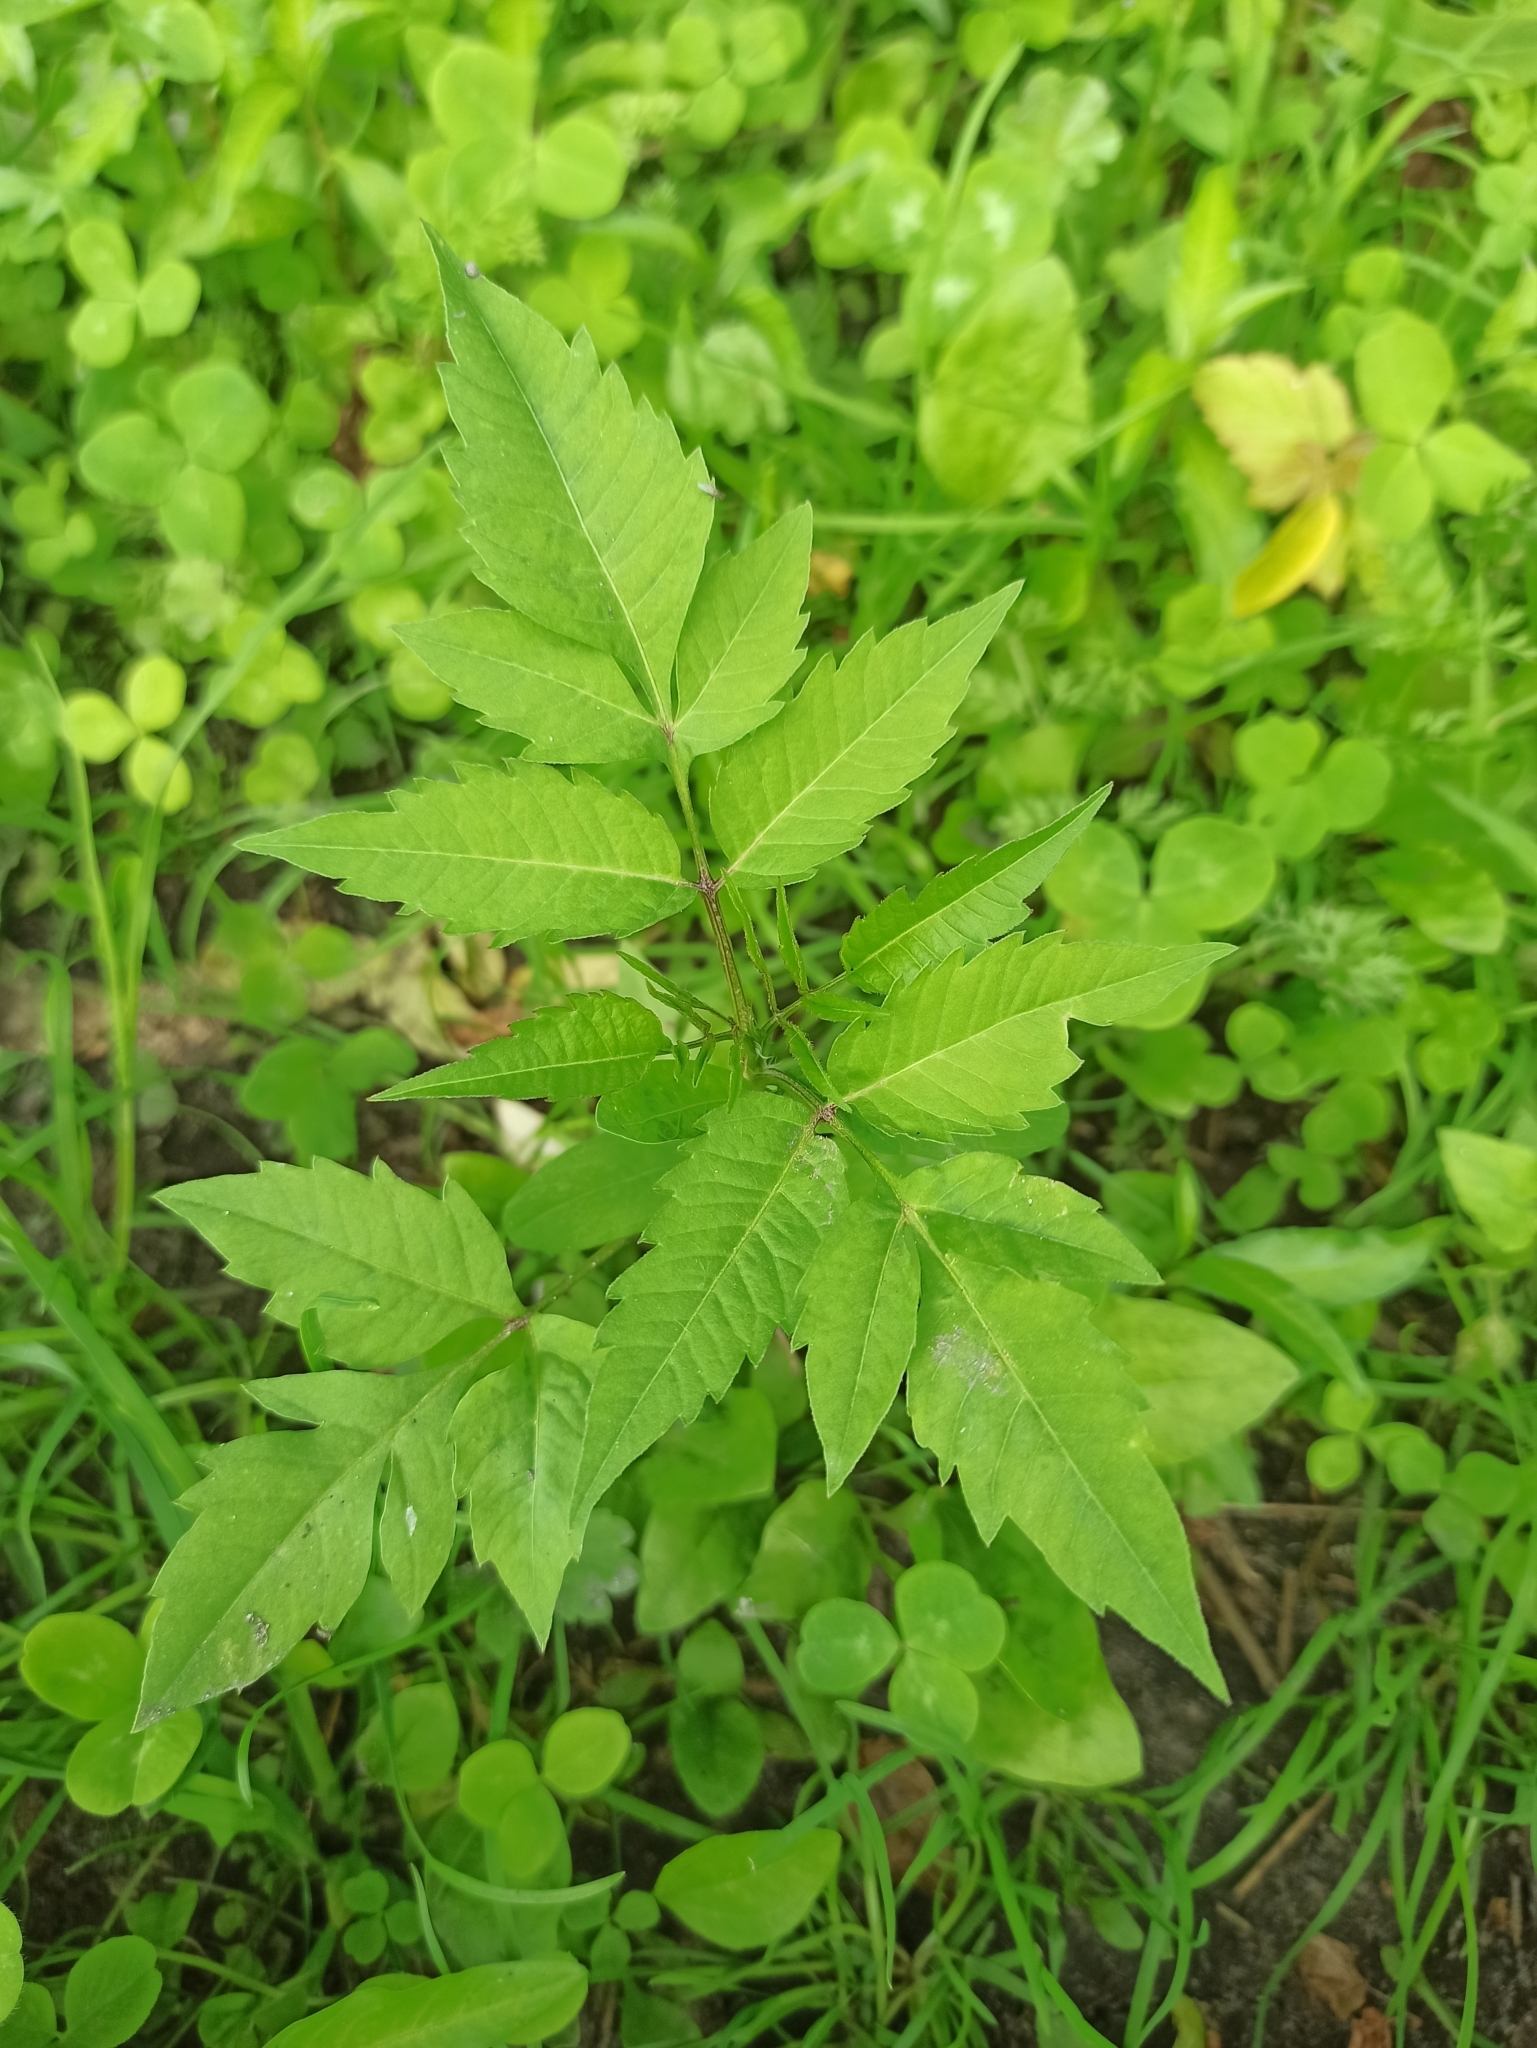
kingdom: Plantae
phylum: Tracheophyta
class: Magnoliopsida
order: Asterales
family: Asteraceae
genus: Bidens
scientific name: Bidens frondosa
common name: Beggarticks
